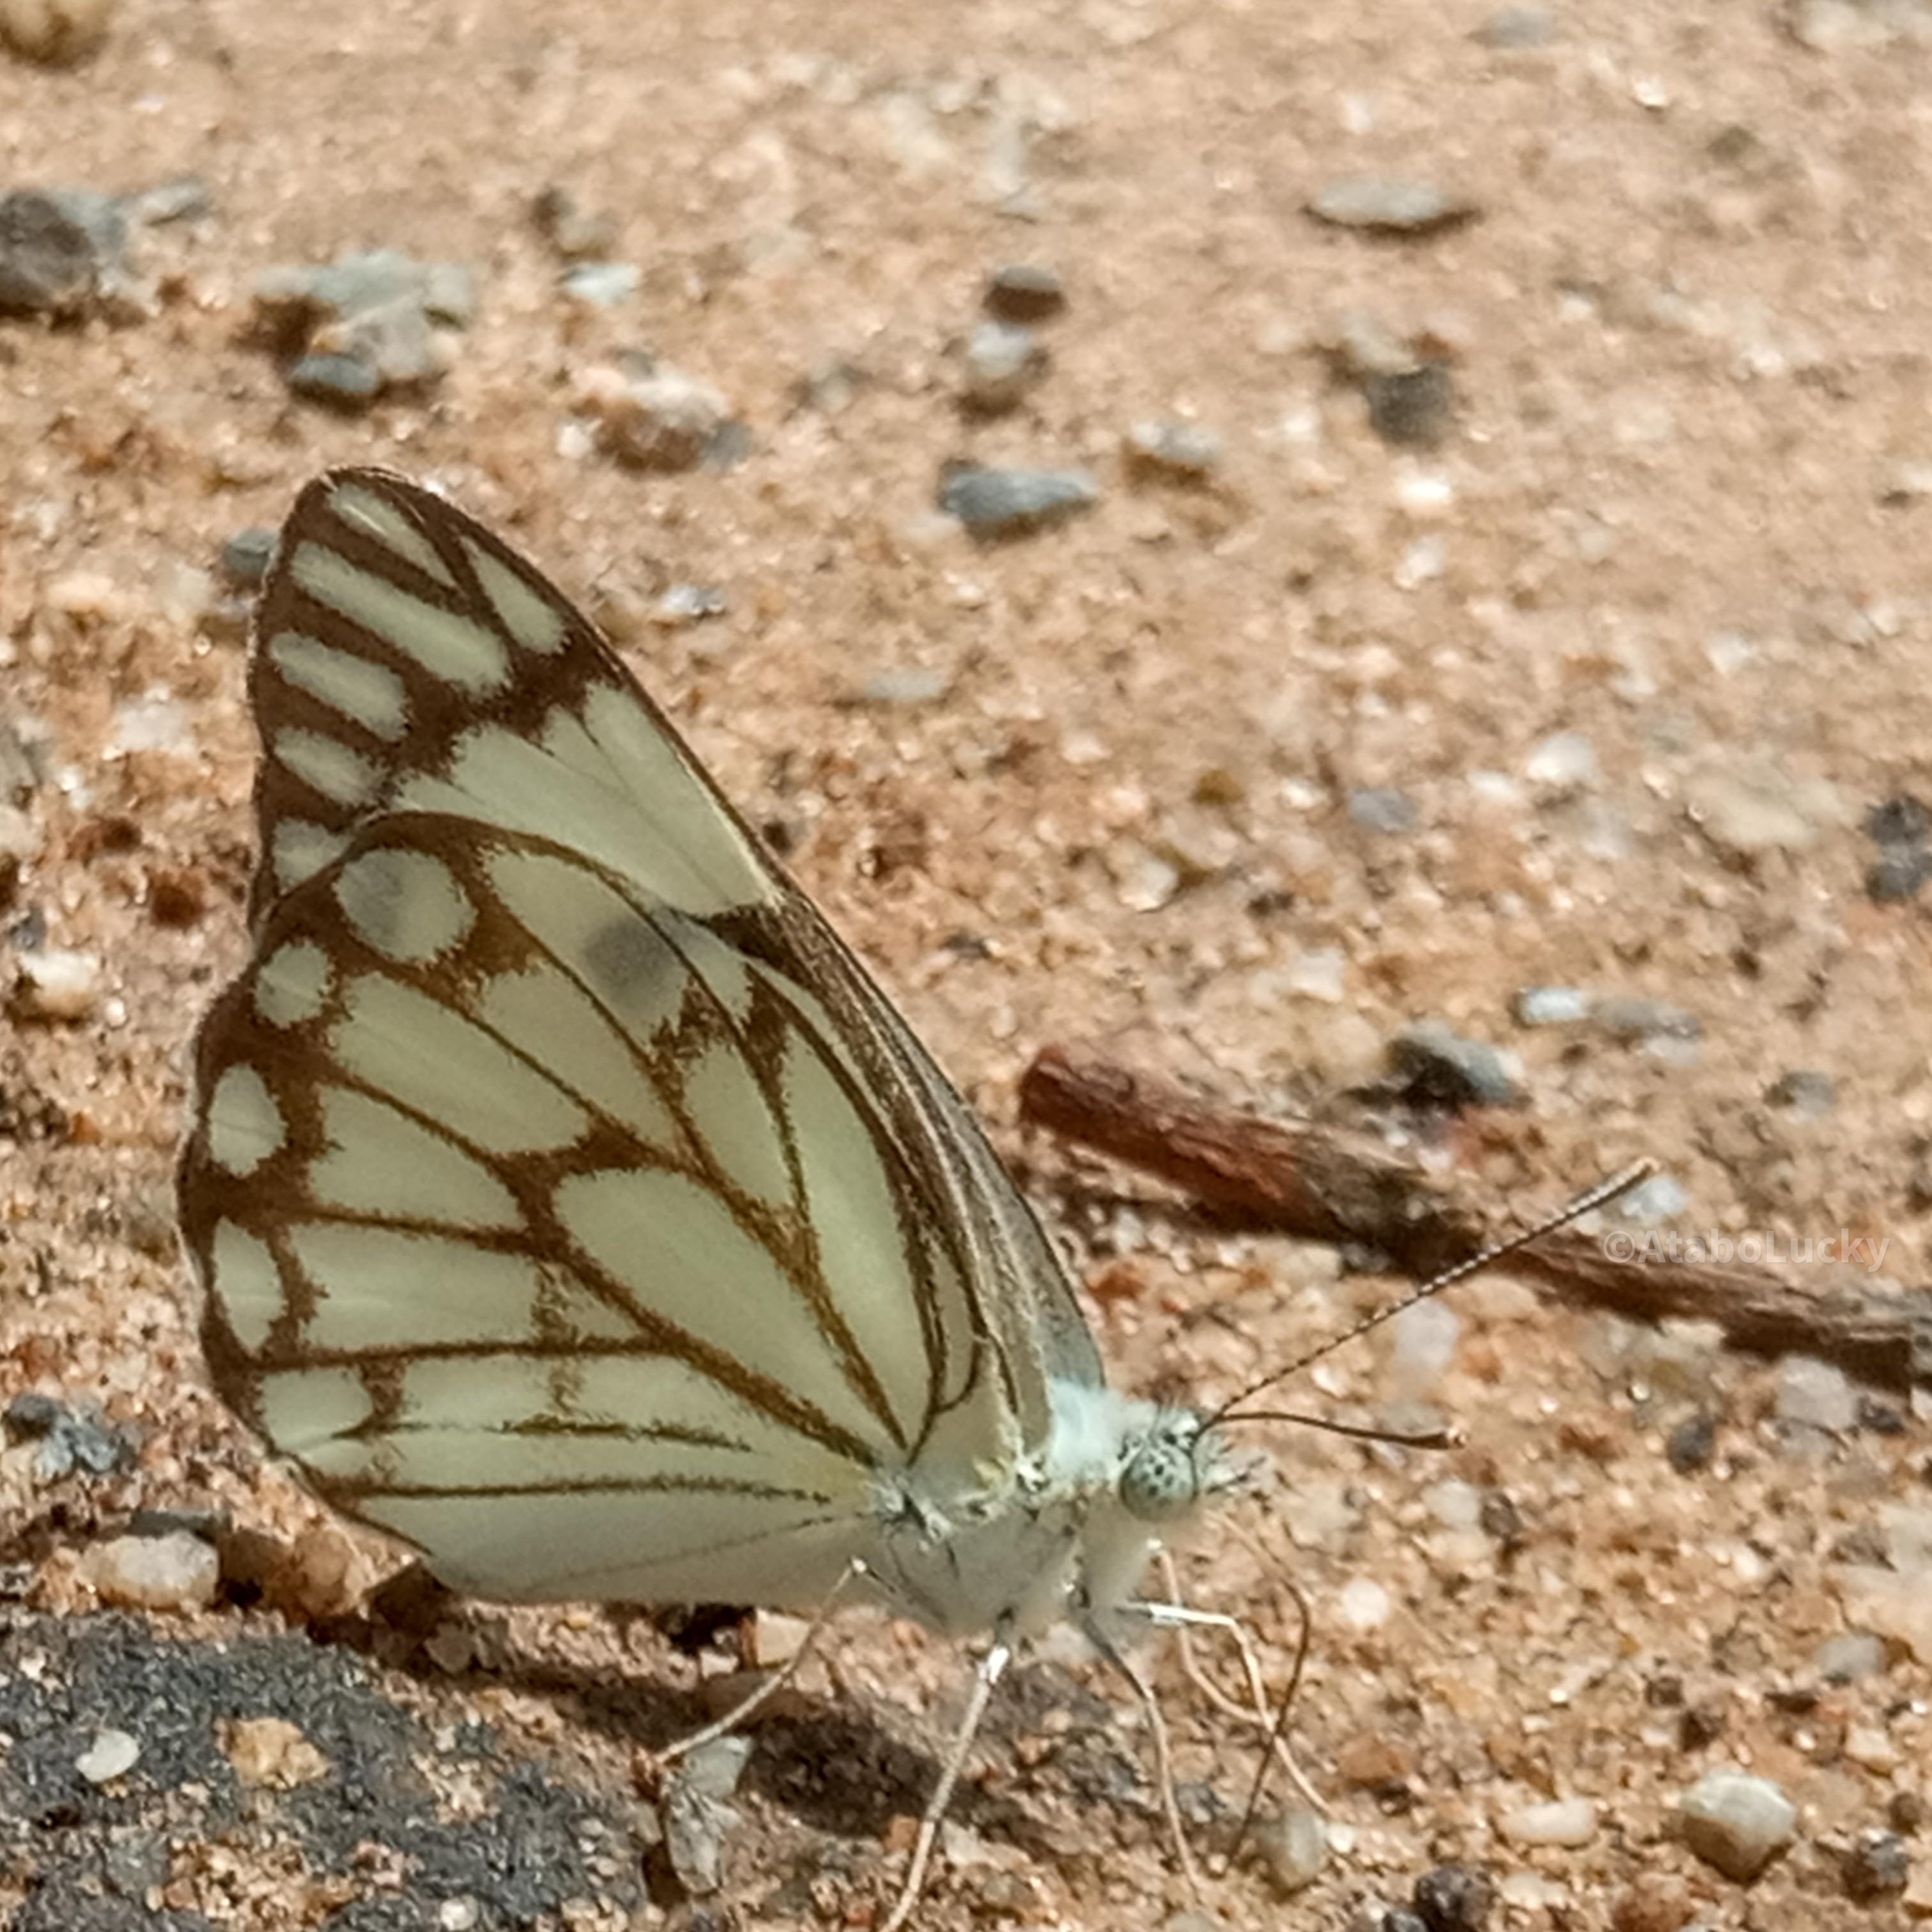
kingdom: Animalia
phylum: Arthropoda
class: Insecta
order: Lepidoptera
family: Pieridae
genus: Belenois
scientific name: Belenois aurota
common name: Brown-veined white
